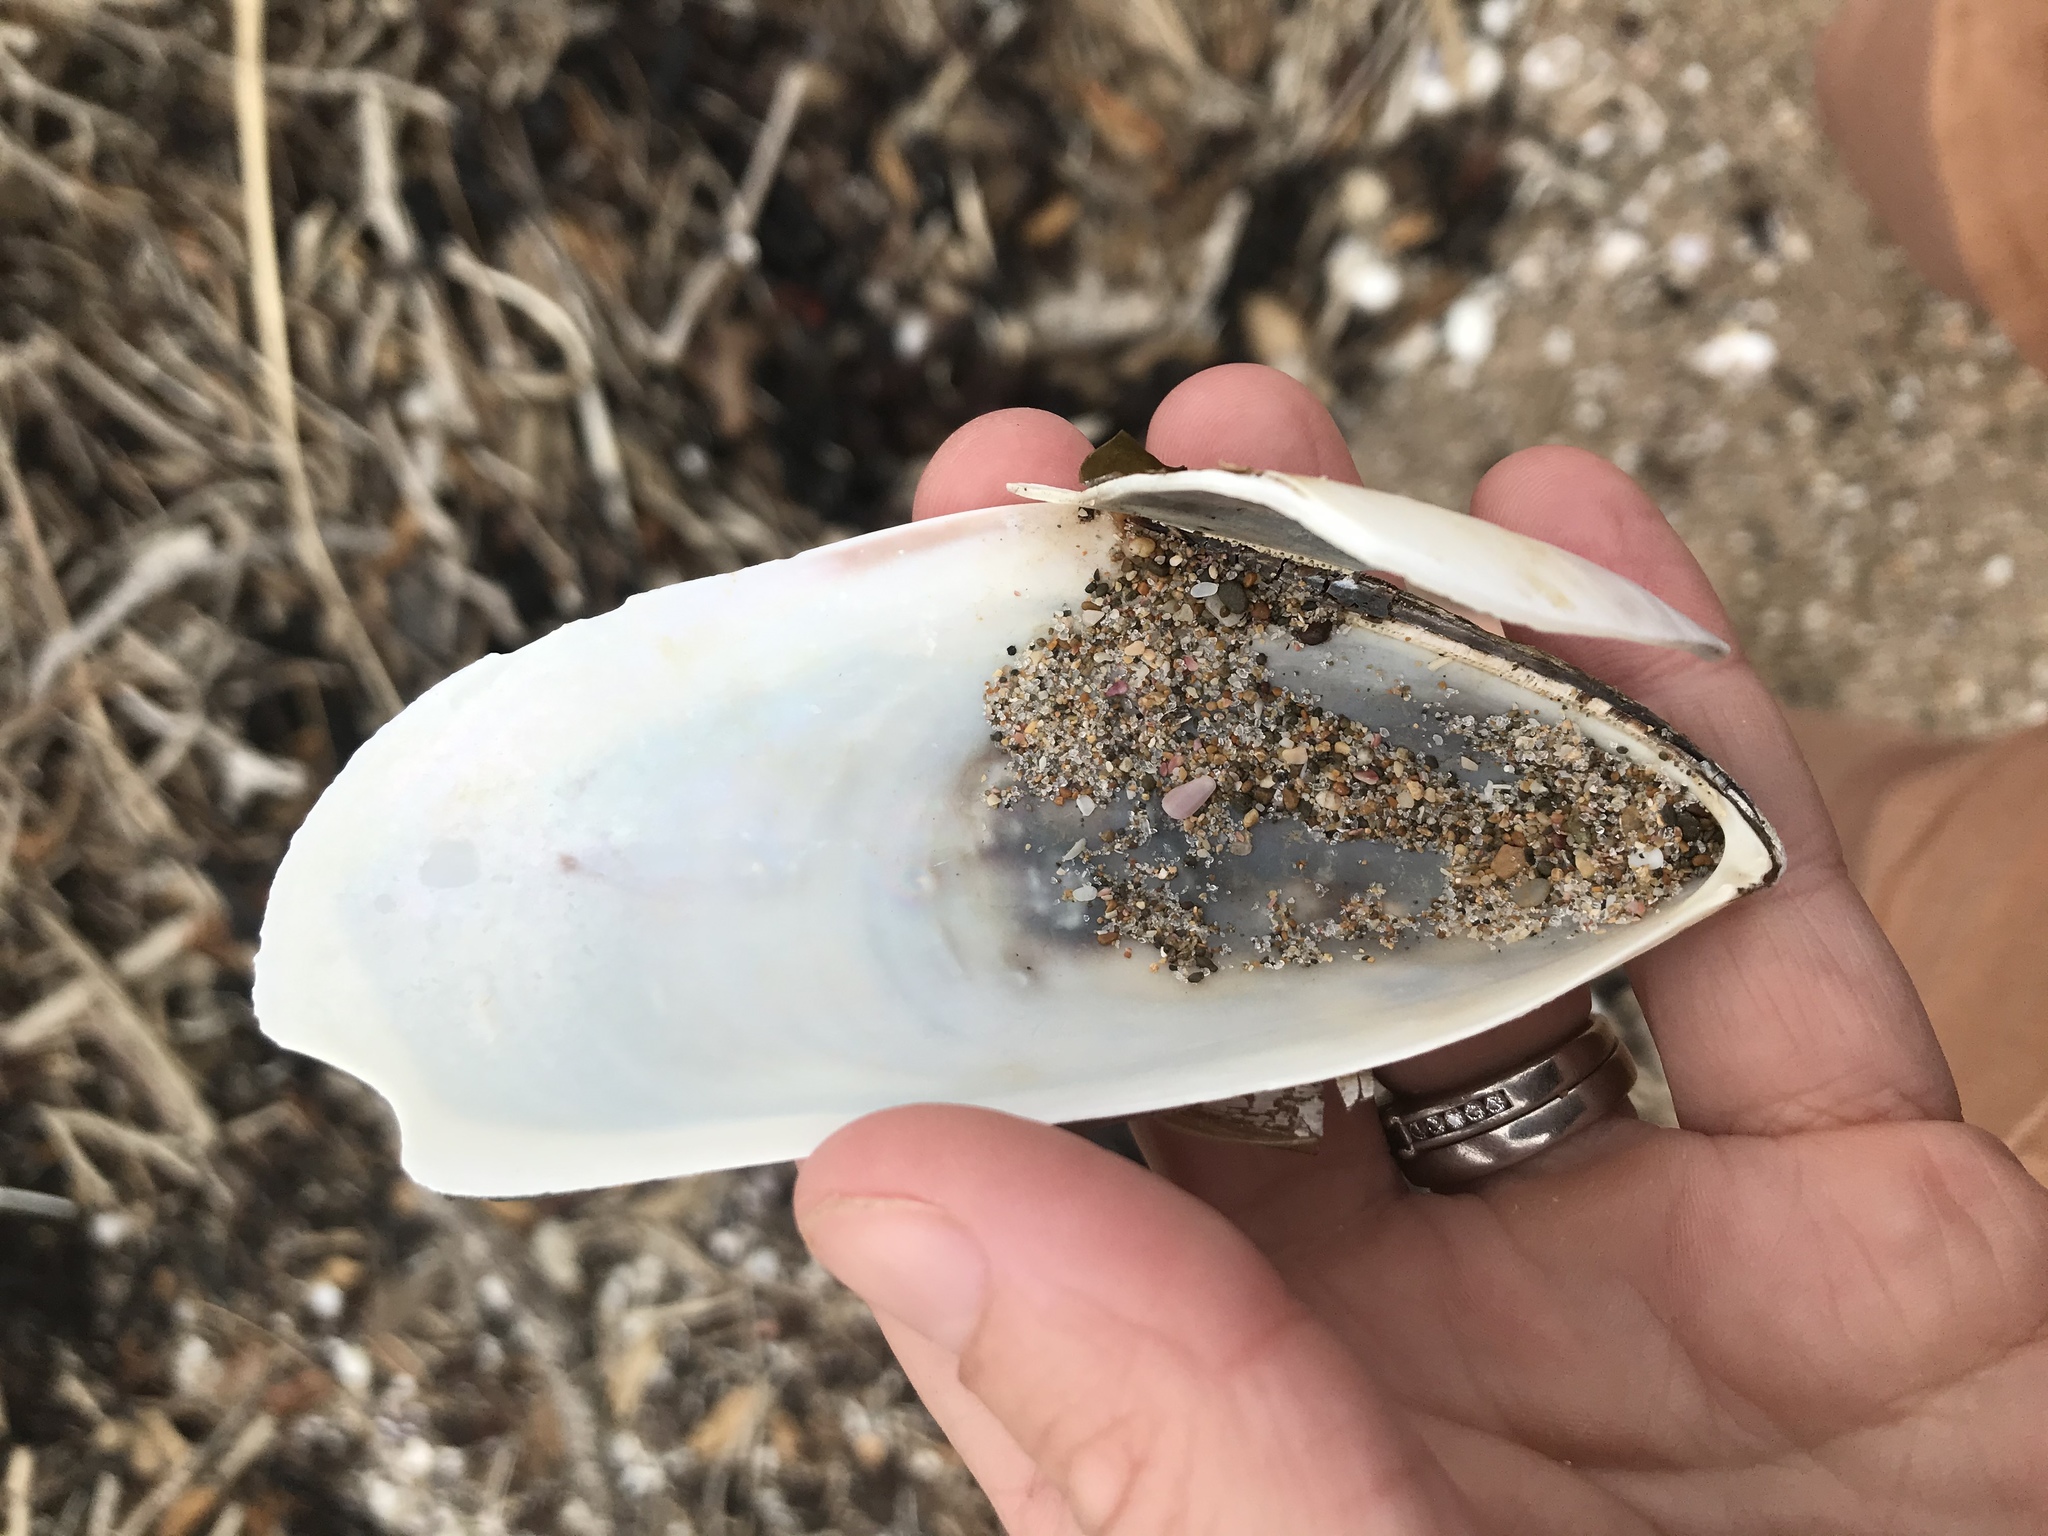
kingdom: Animalia
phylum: Mollusca
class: Bivalvia
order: Mytilida
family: Mytilidae
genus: Perna
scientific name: Perna canaliculus
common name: New zealand greenshelltm
